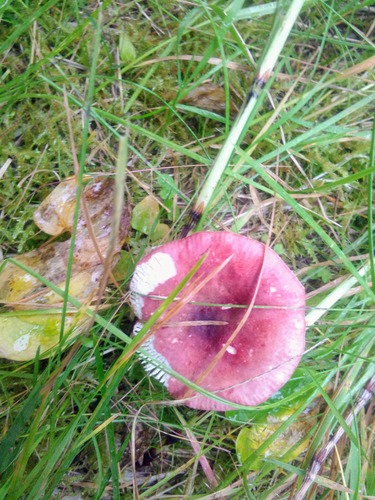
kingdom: Fungi
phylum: Basidiomycota
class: Agaricomycetes
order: Russulales
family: Russulaceae
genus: Russula
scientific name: Russula sanguinea
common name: Bloody brittlegill
